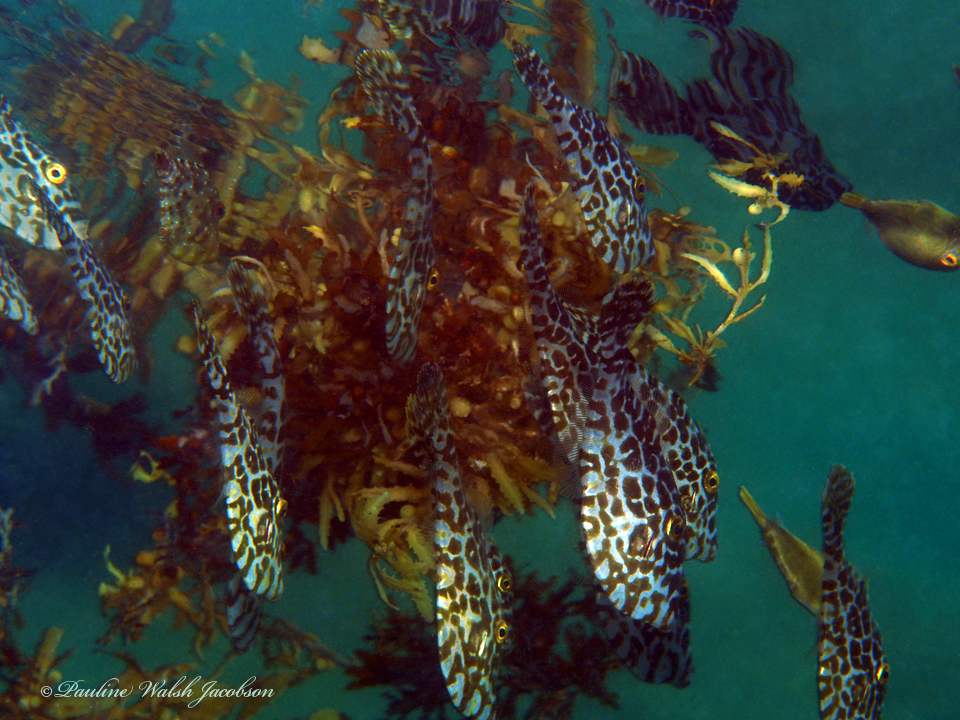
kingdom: Animalia
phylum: Chordata
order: Tetraodontiformes
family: Monacanthidae
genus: Aluterus
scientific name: Aluterus monoceros
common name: Batfish
